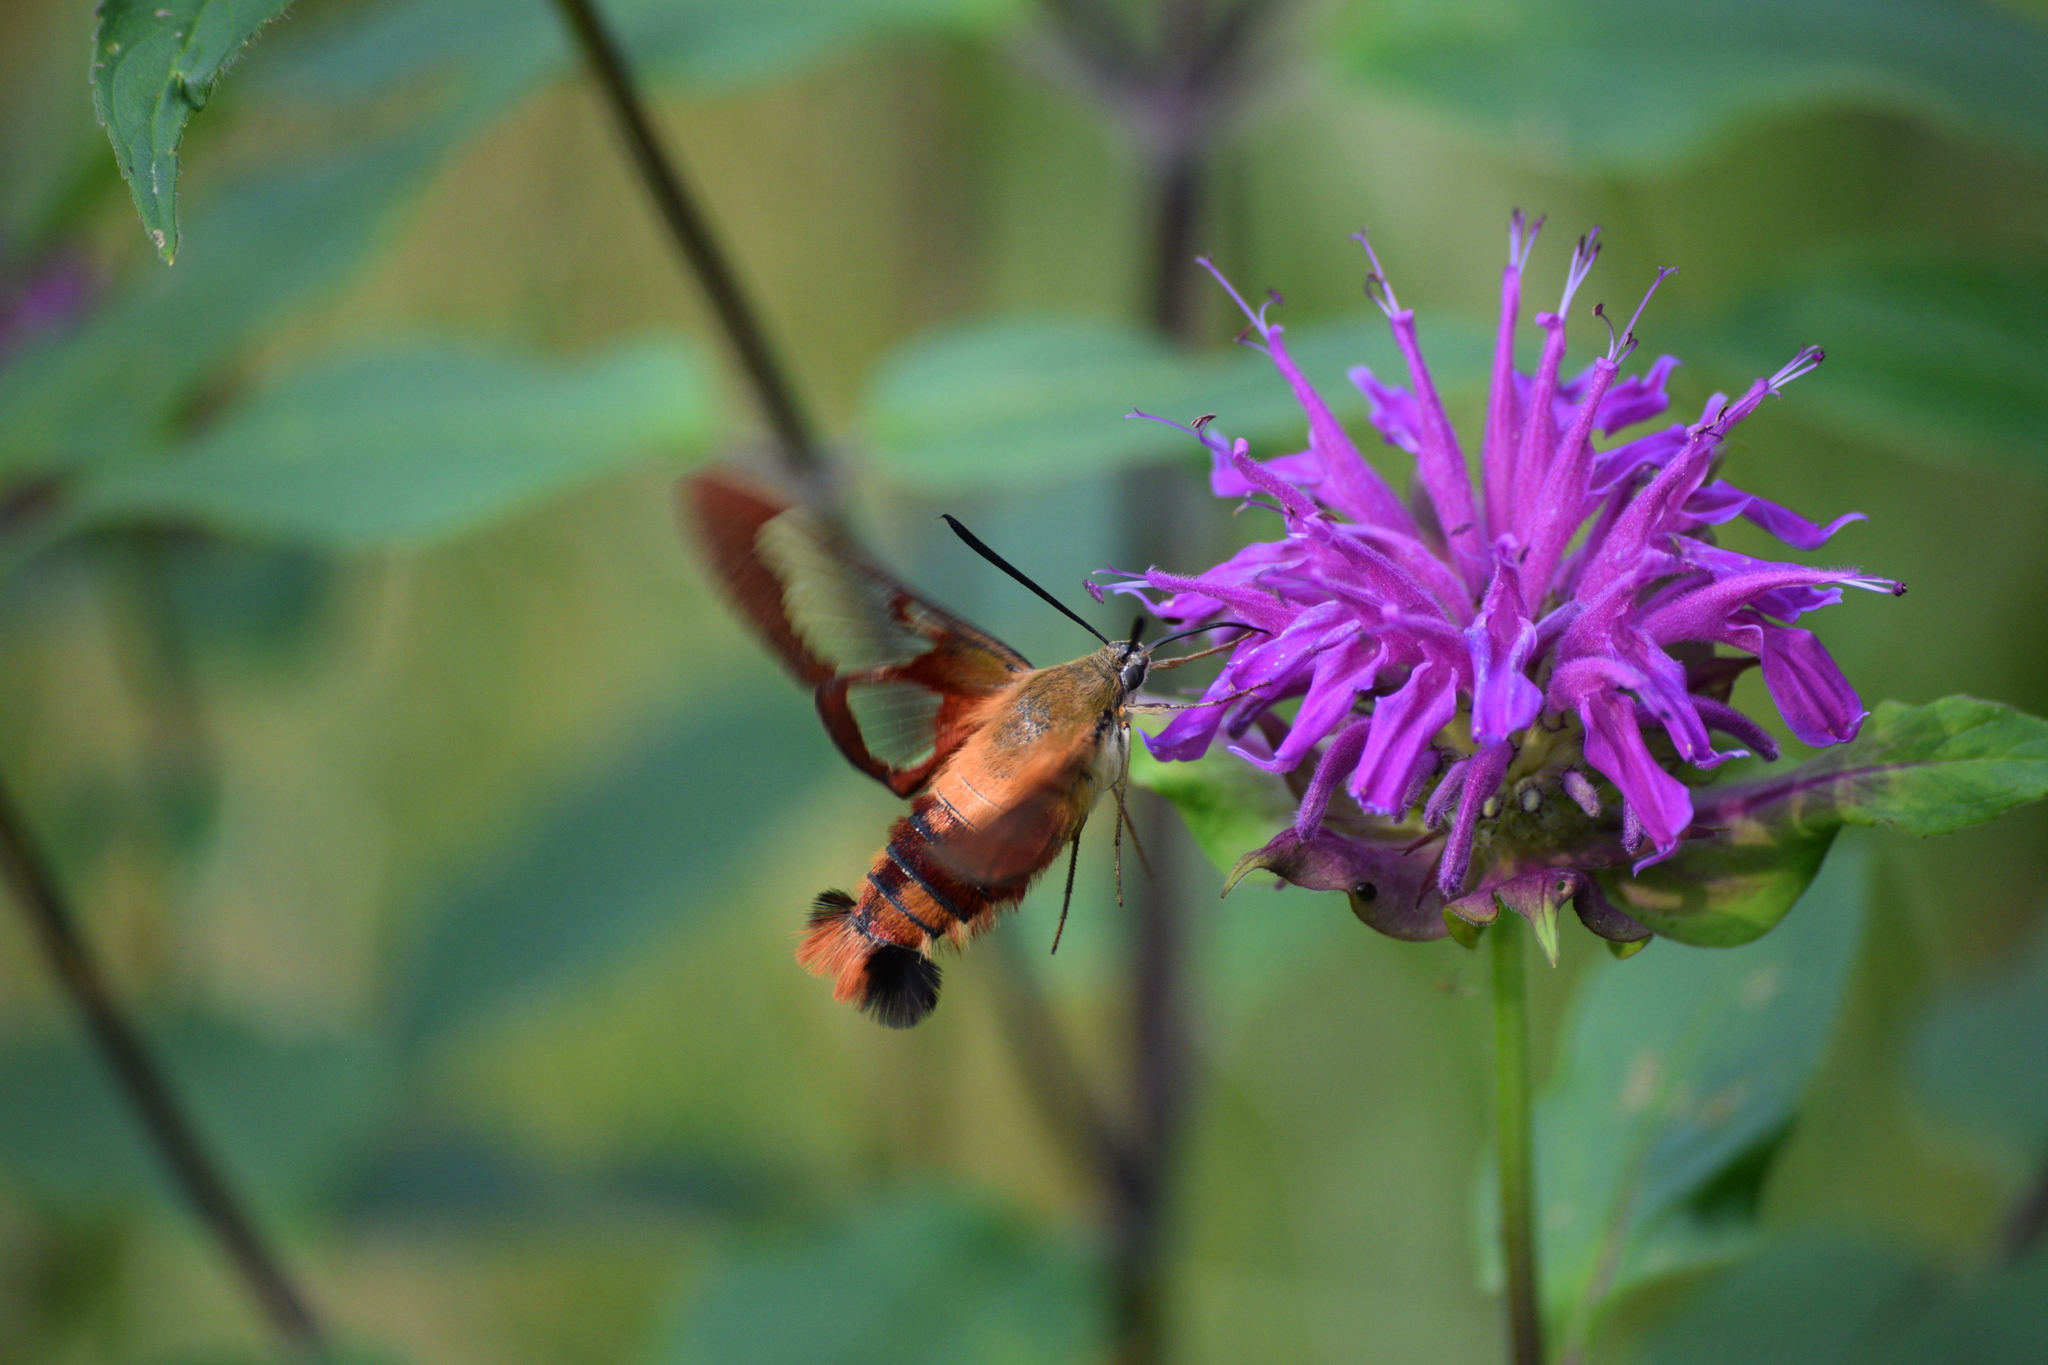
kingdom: Animalia
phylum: Arthropoda
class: Insecta
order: Lepidoptera
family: Sphingidae
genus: Hemaris
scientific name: Hemaris thysbe
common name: Common clear-wing
